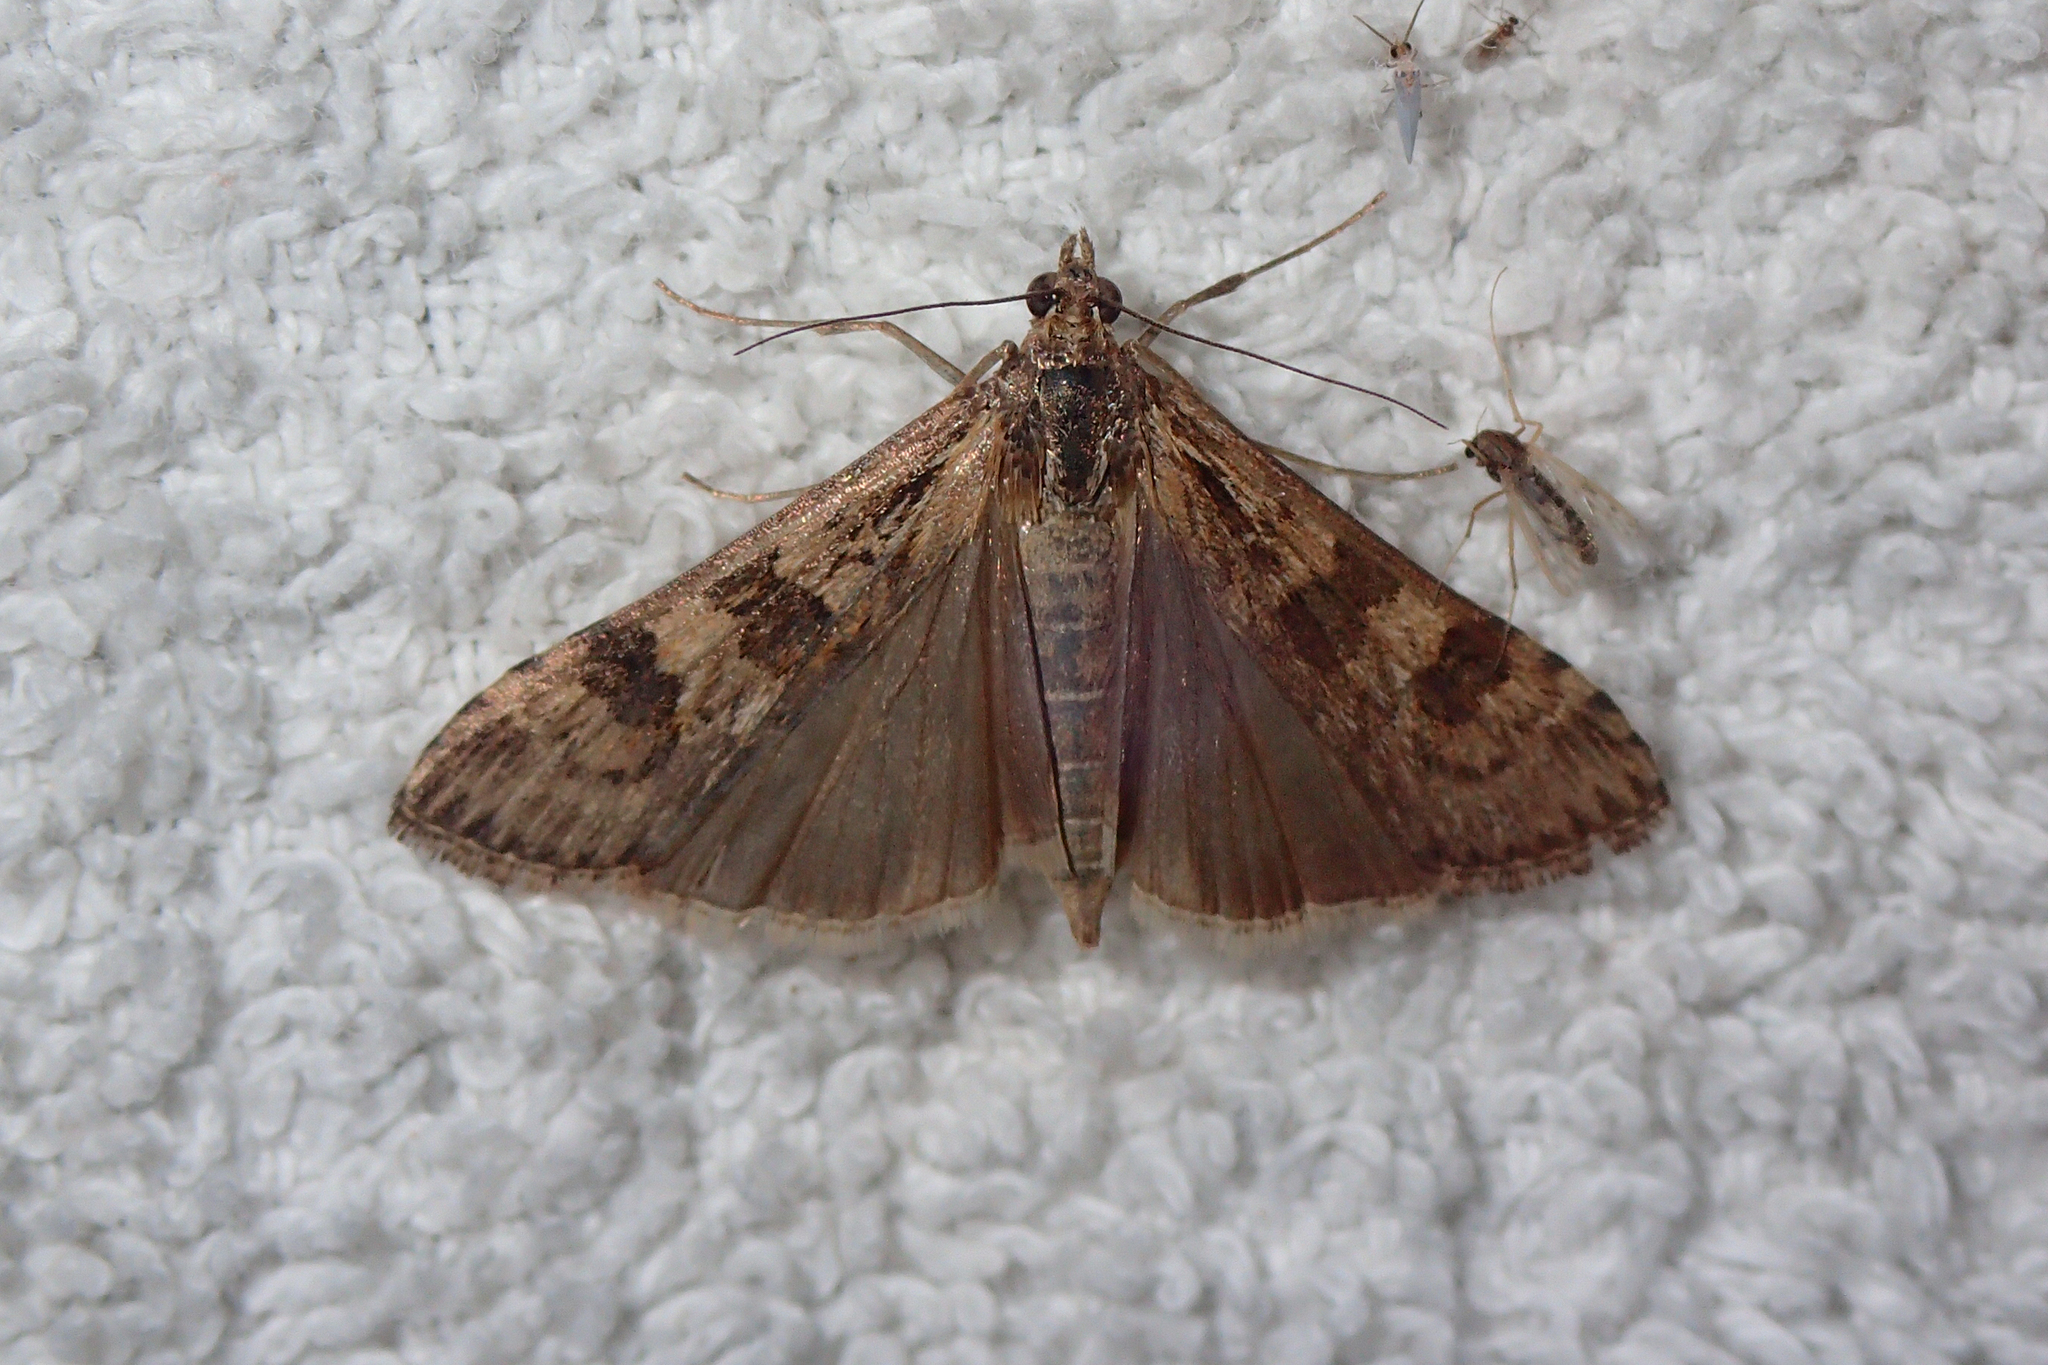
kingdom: Animalia
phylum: Arthropoda
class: Insecta
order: Lepidoptera
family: Crambidae
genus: Nomophila
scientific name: Nomophila noctuella
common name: Rush veneer
